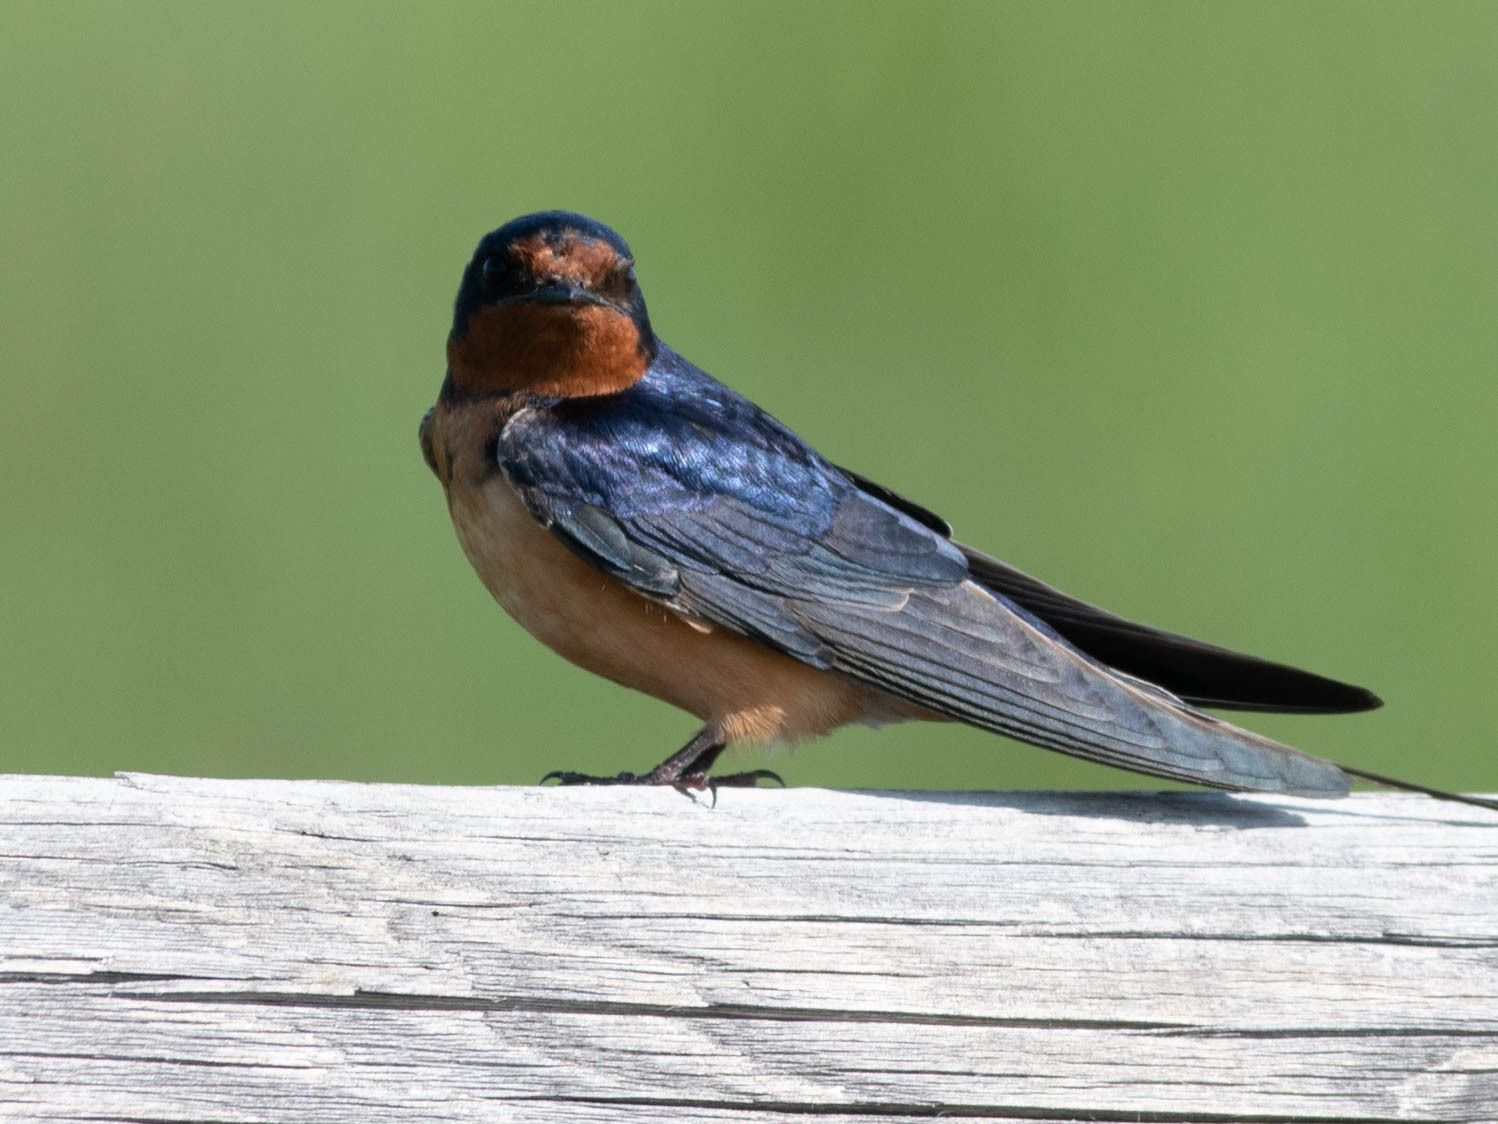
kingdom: Animalia
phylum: Chordata
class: Aves
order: Passeriformes
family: Hirundinidae
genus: Hirundo
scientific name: Hirundo rustica
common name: Barn swallow
